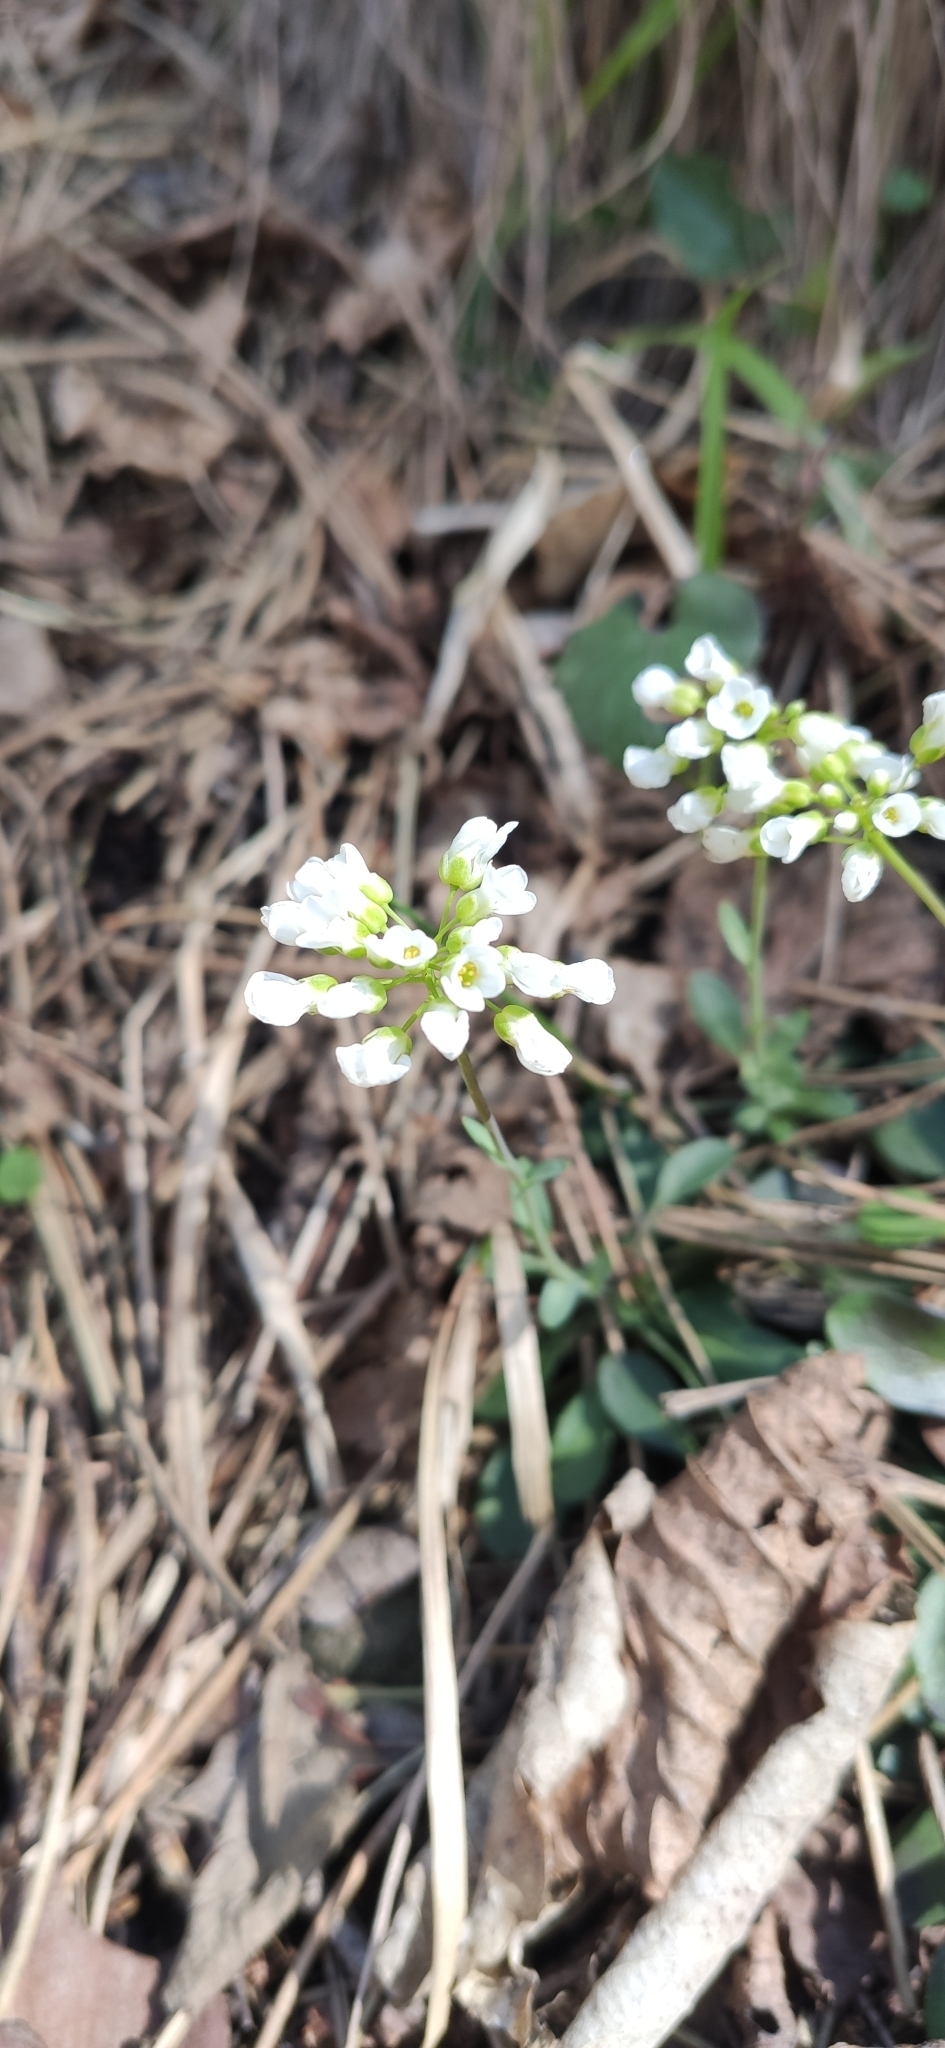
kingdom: Plantae
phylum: Tracheophyta
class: Magnoliopsida
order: Brassicales
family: Brassicaceae
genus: Noccaea
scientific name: Noccaea montana
